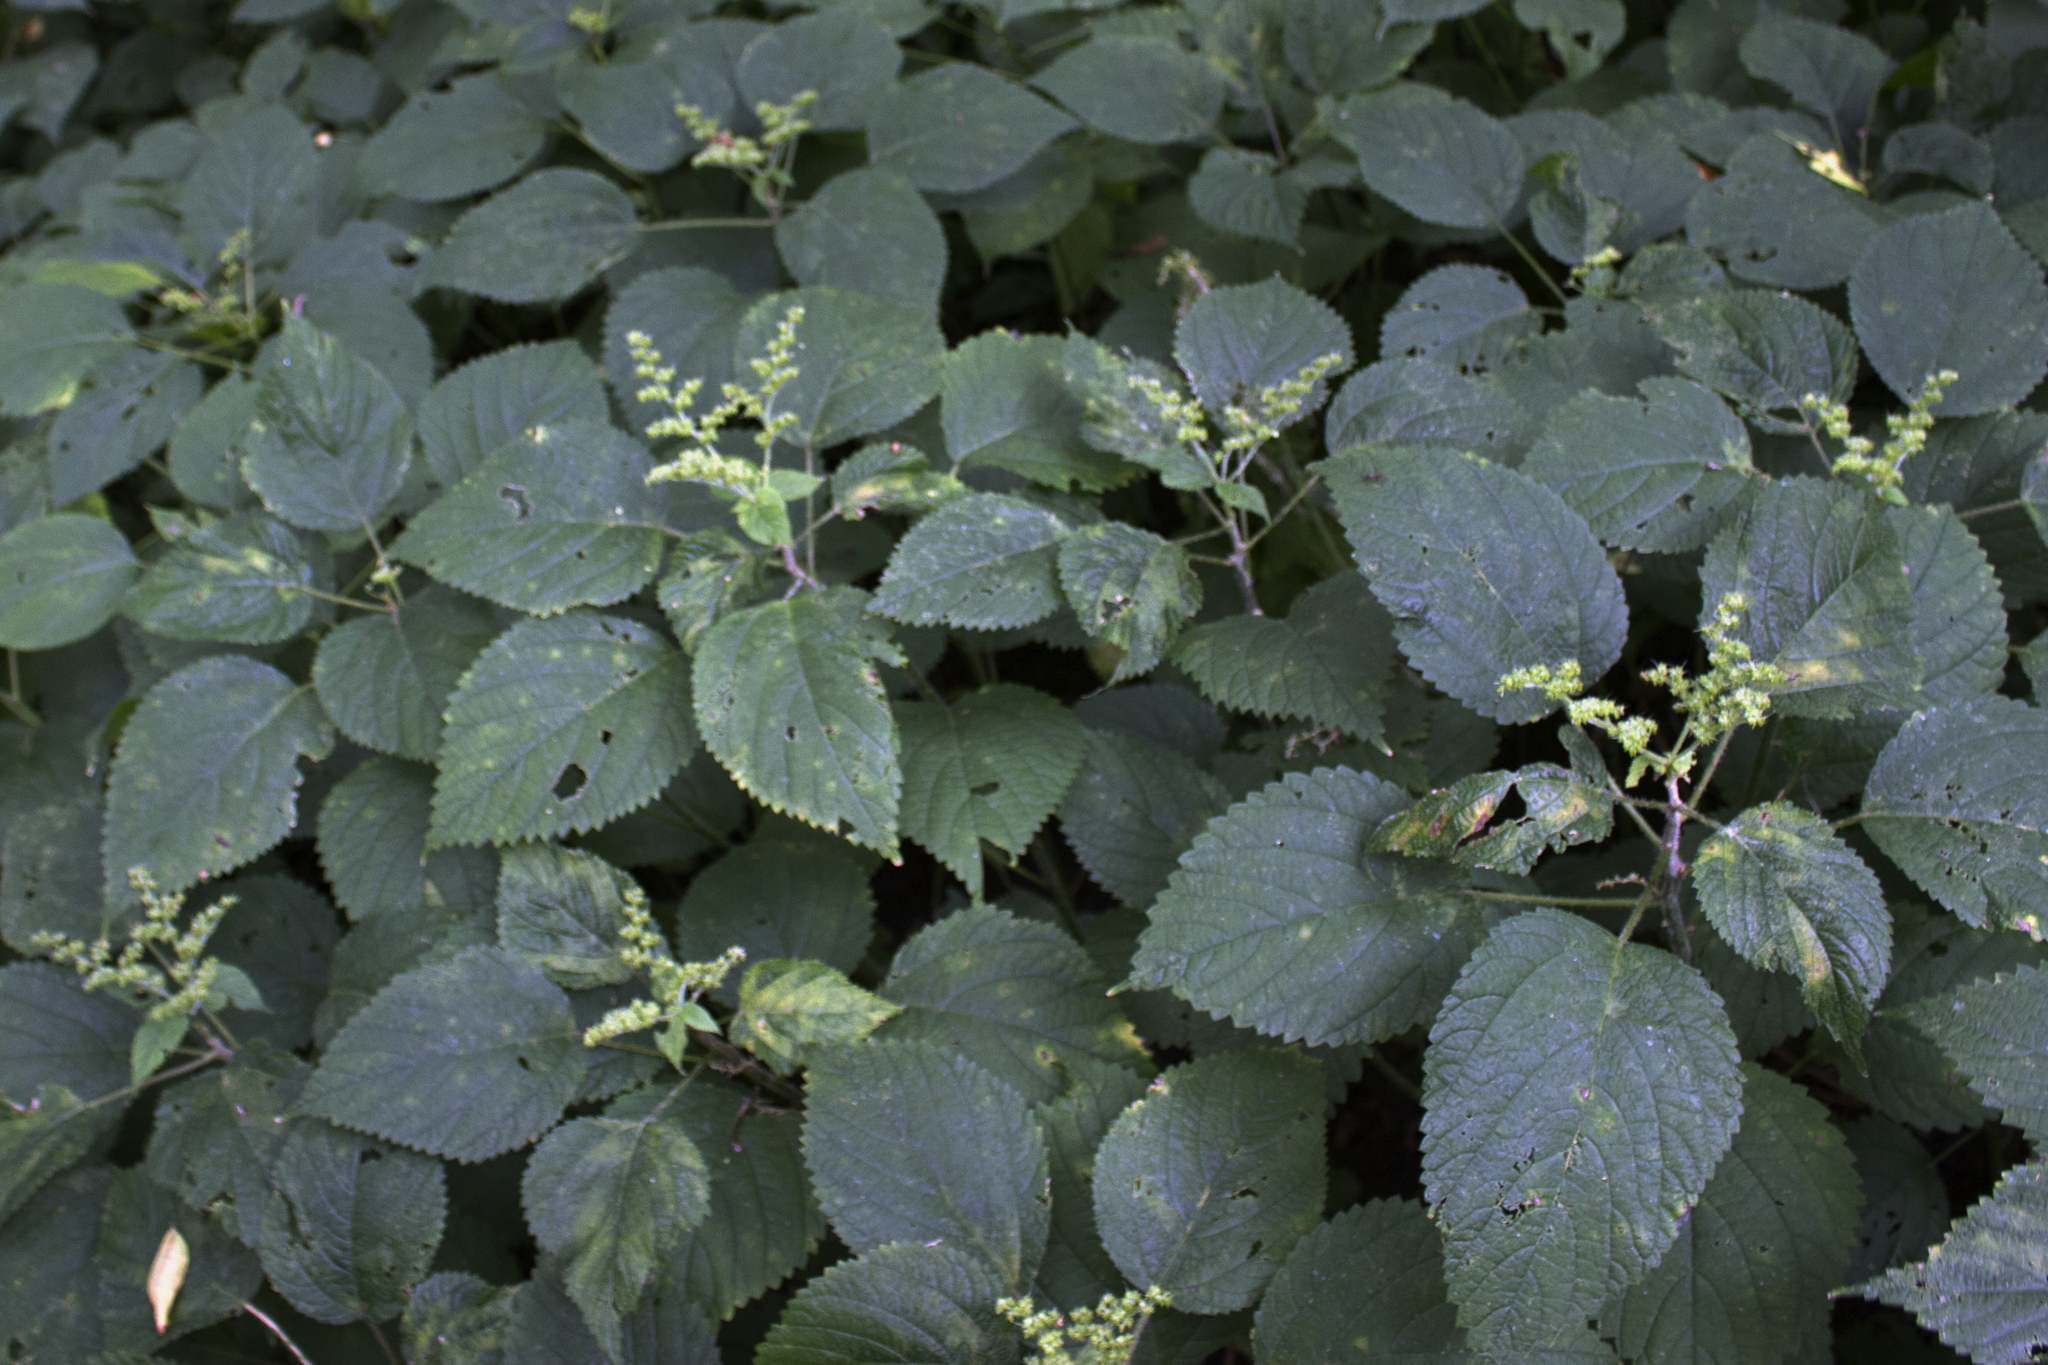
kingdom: Plantae
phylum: Tracheophyta
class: Magnoliopsida
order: Rosales
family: Urticaceae
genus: Laportea
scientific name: Laportea canadensis
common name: Canada nettle
